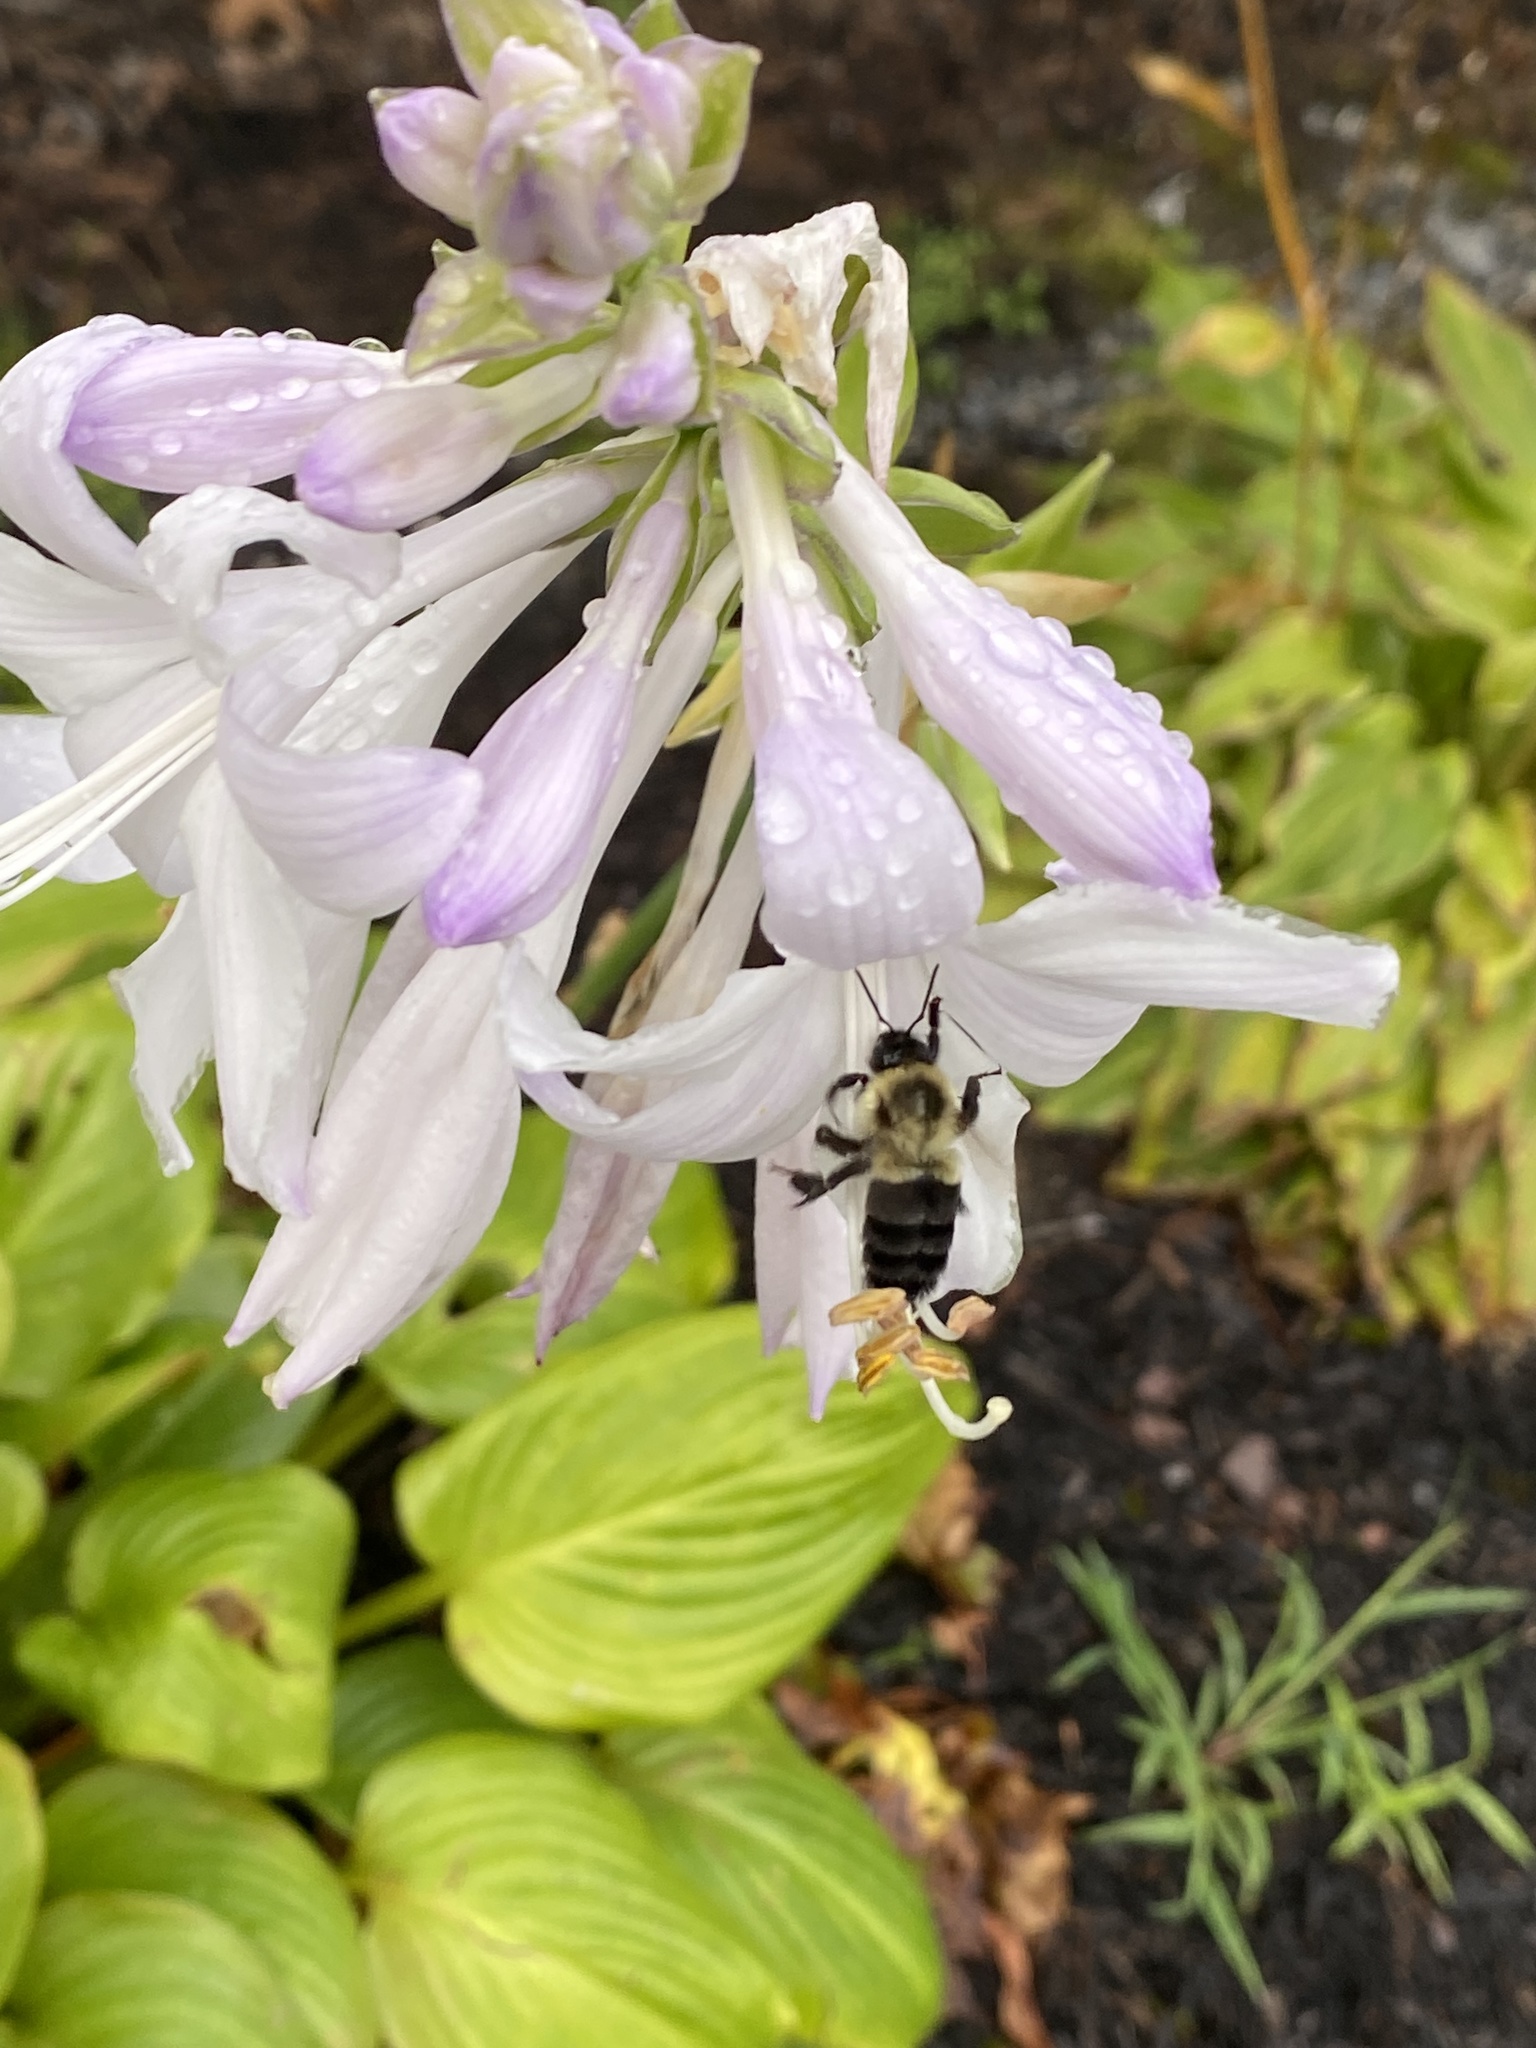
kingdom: Animalia
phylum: Arthropoda
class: Insecta
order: Hymenoptera
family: Apidae
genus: Bombus
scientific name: Bombus impatiens
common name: Common eastern bumble bee
